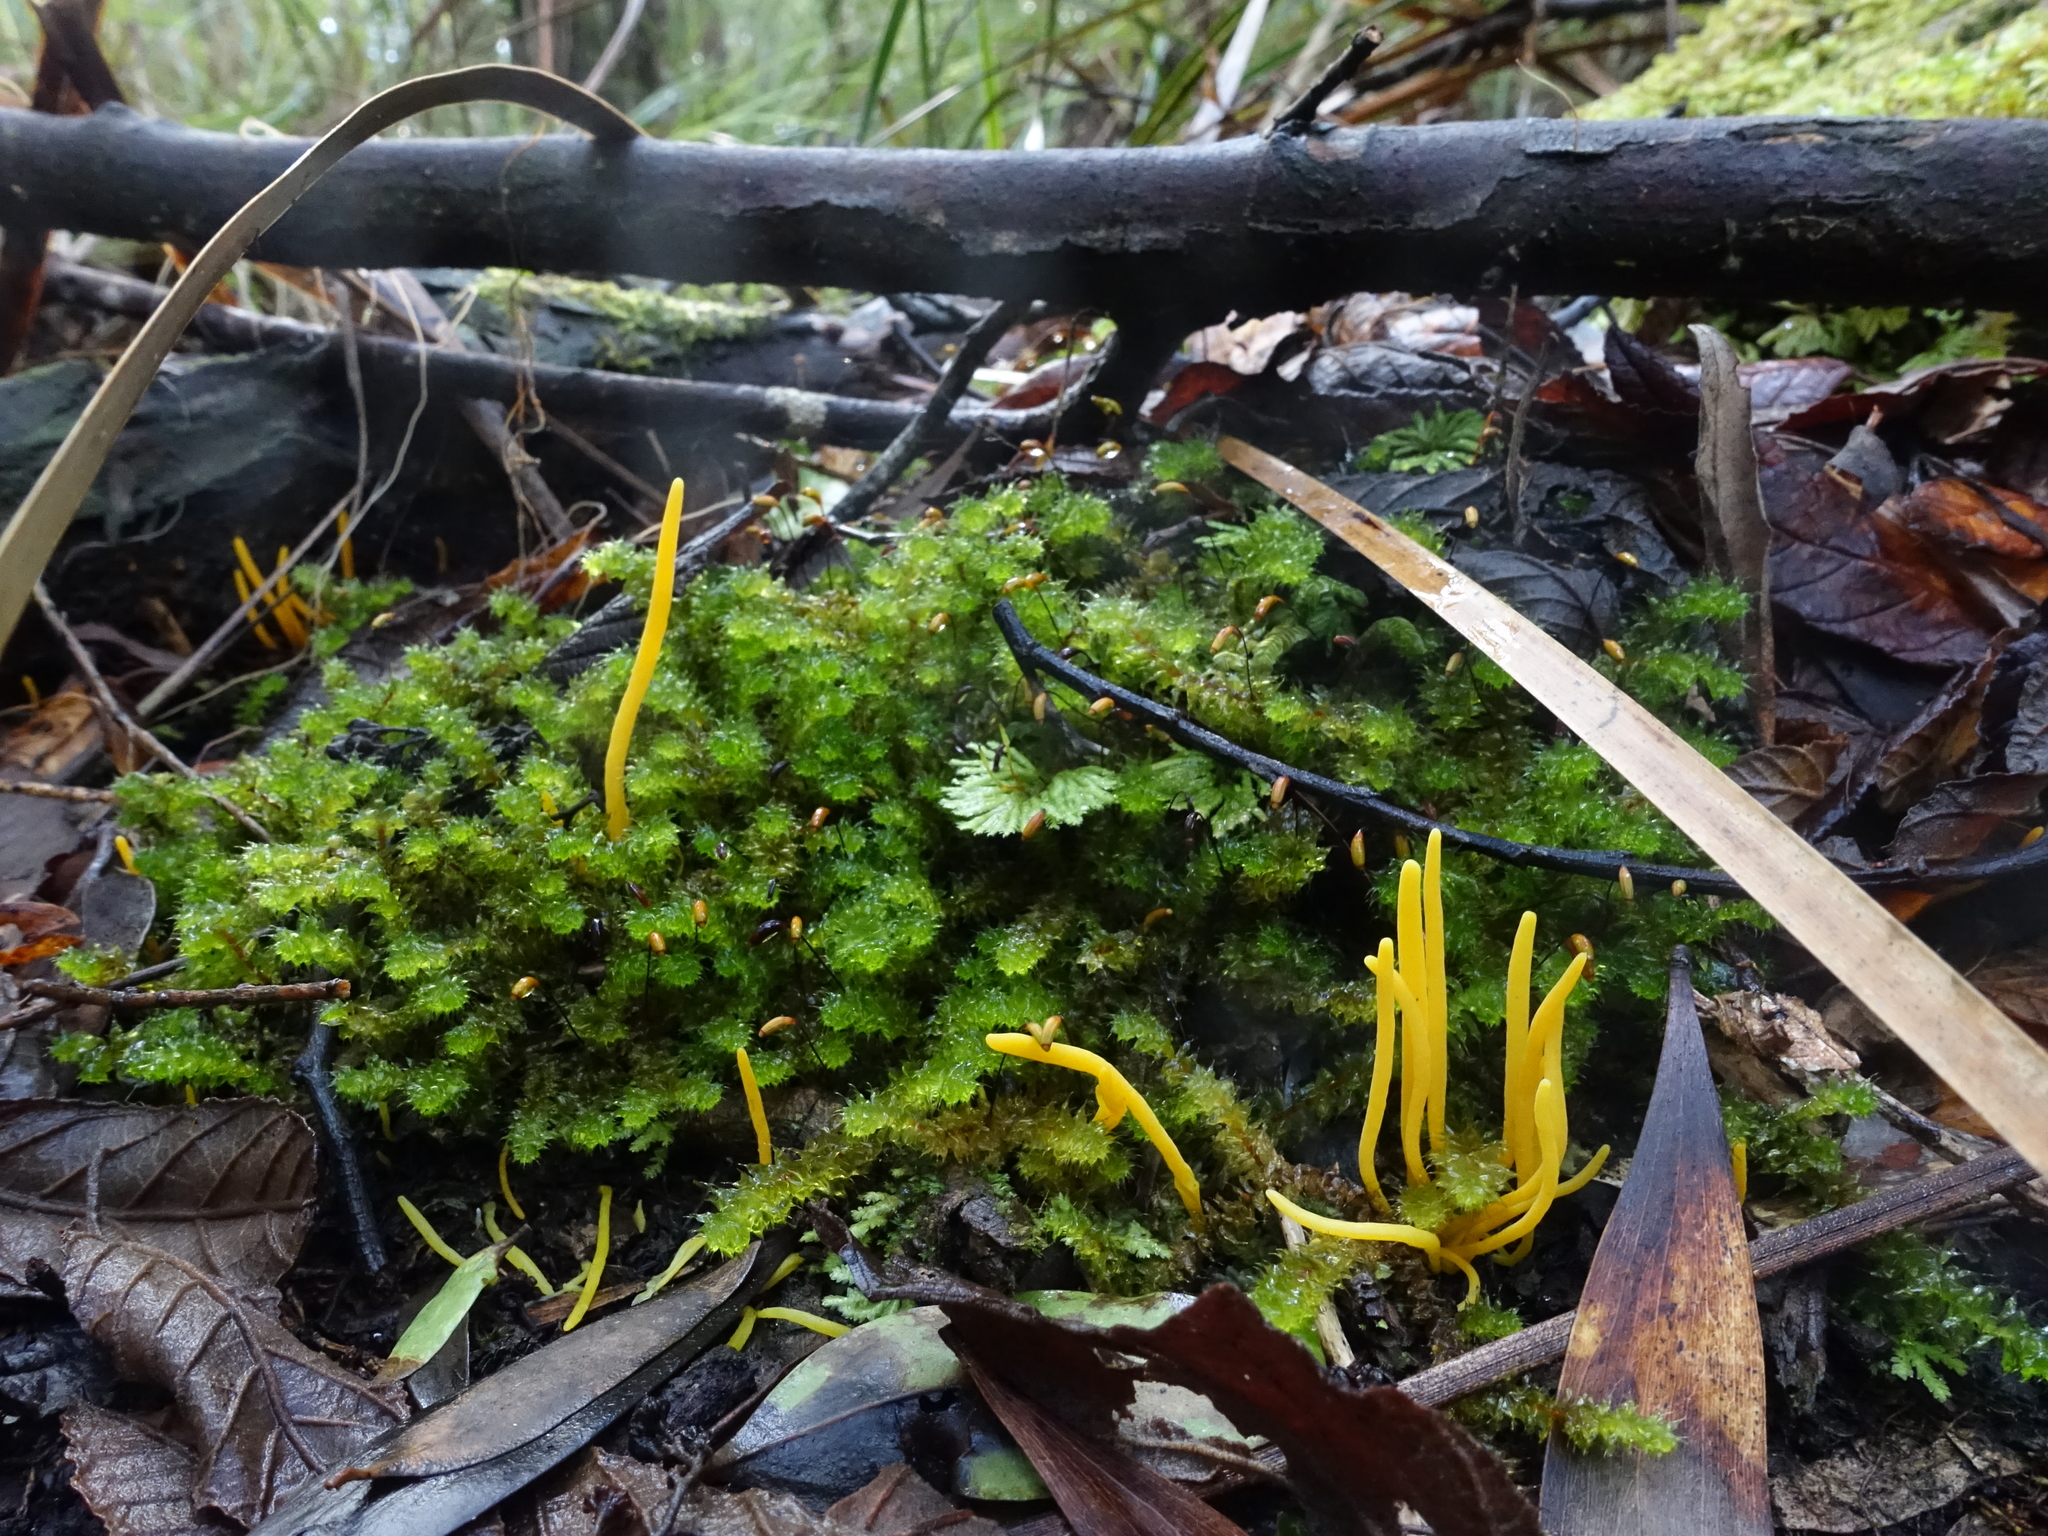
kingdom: Fungi
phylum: Basidiomycota
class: Agaricomycetes
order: Agaricales
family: Clavariaceae
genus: Clavulinopsis
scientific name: Clavulinopsis amoena
